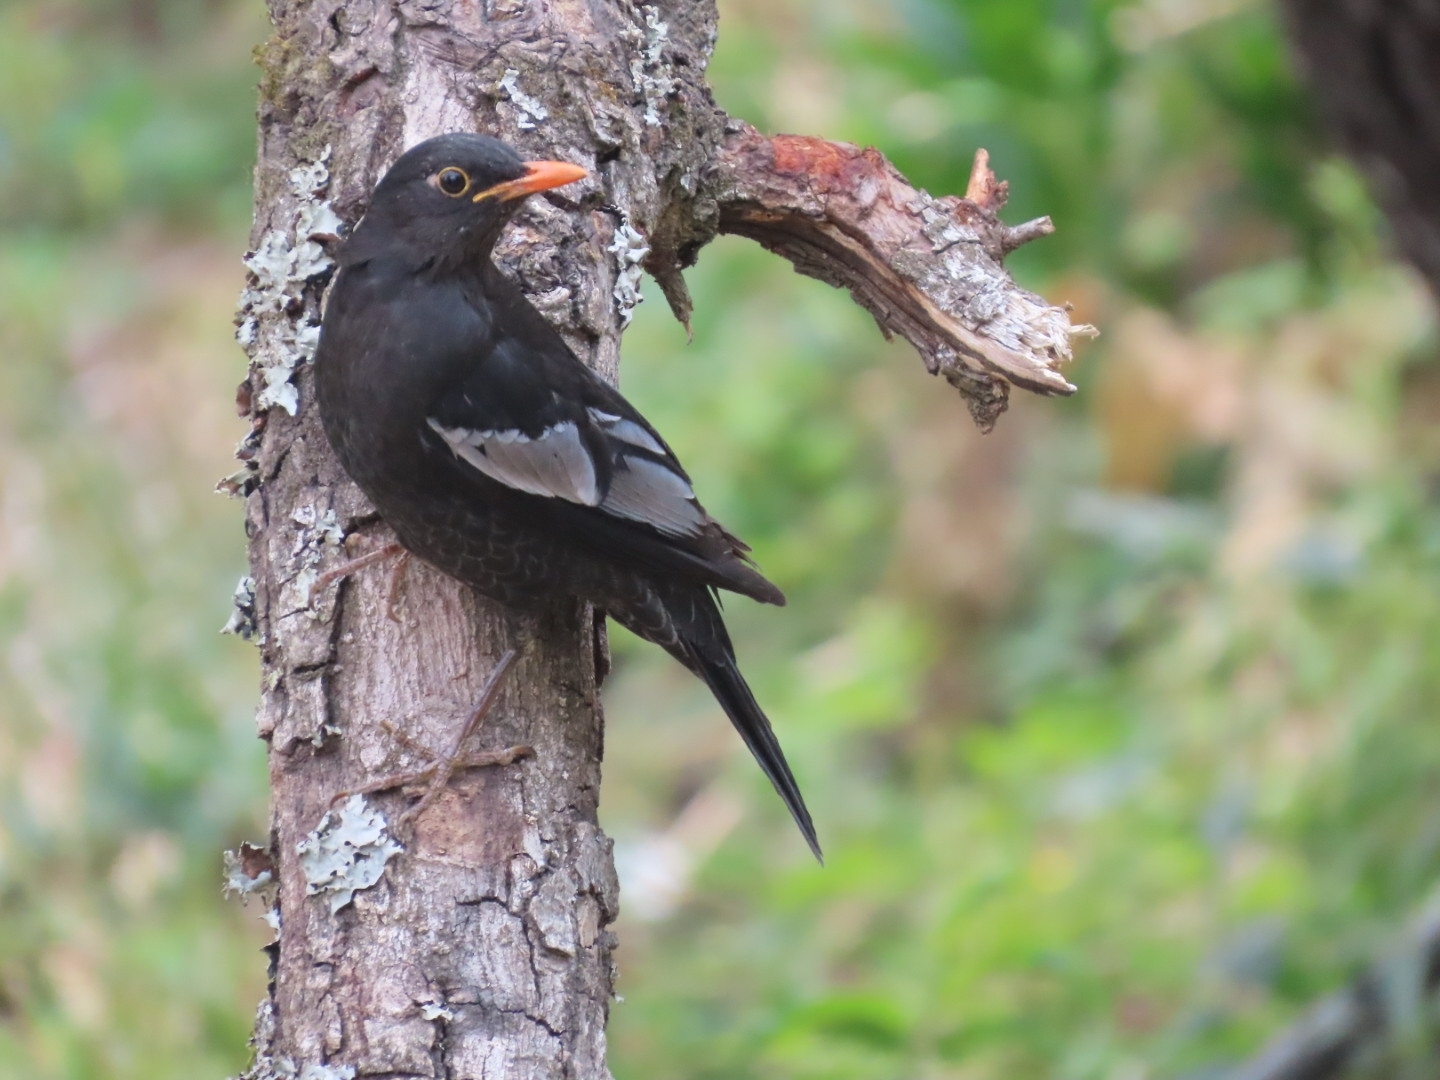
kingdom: Animalia
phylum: Chordata
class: Aves
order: Passeriformes
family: Turdidae
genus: Turdus
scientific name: Turdus boulboul
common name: Grey-winged blackbird
